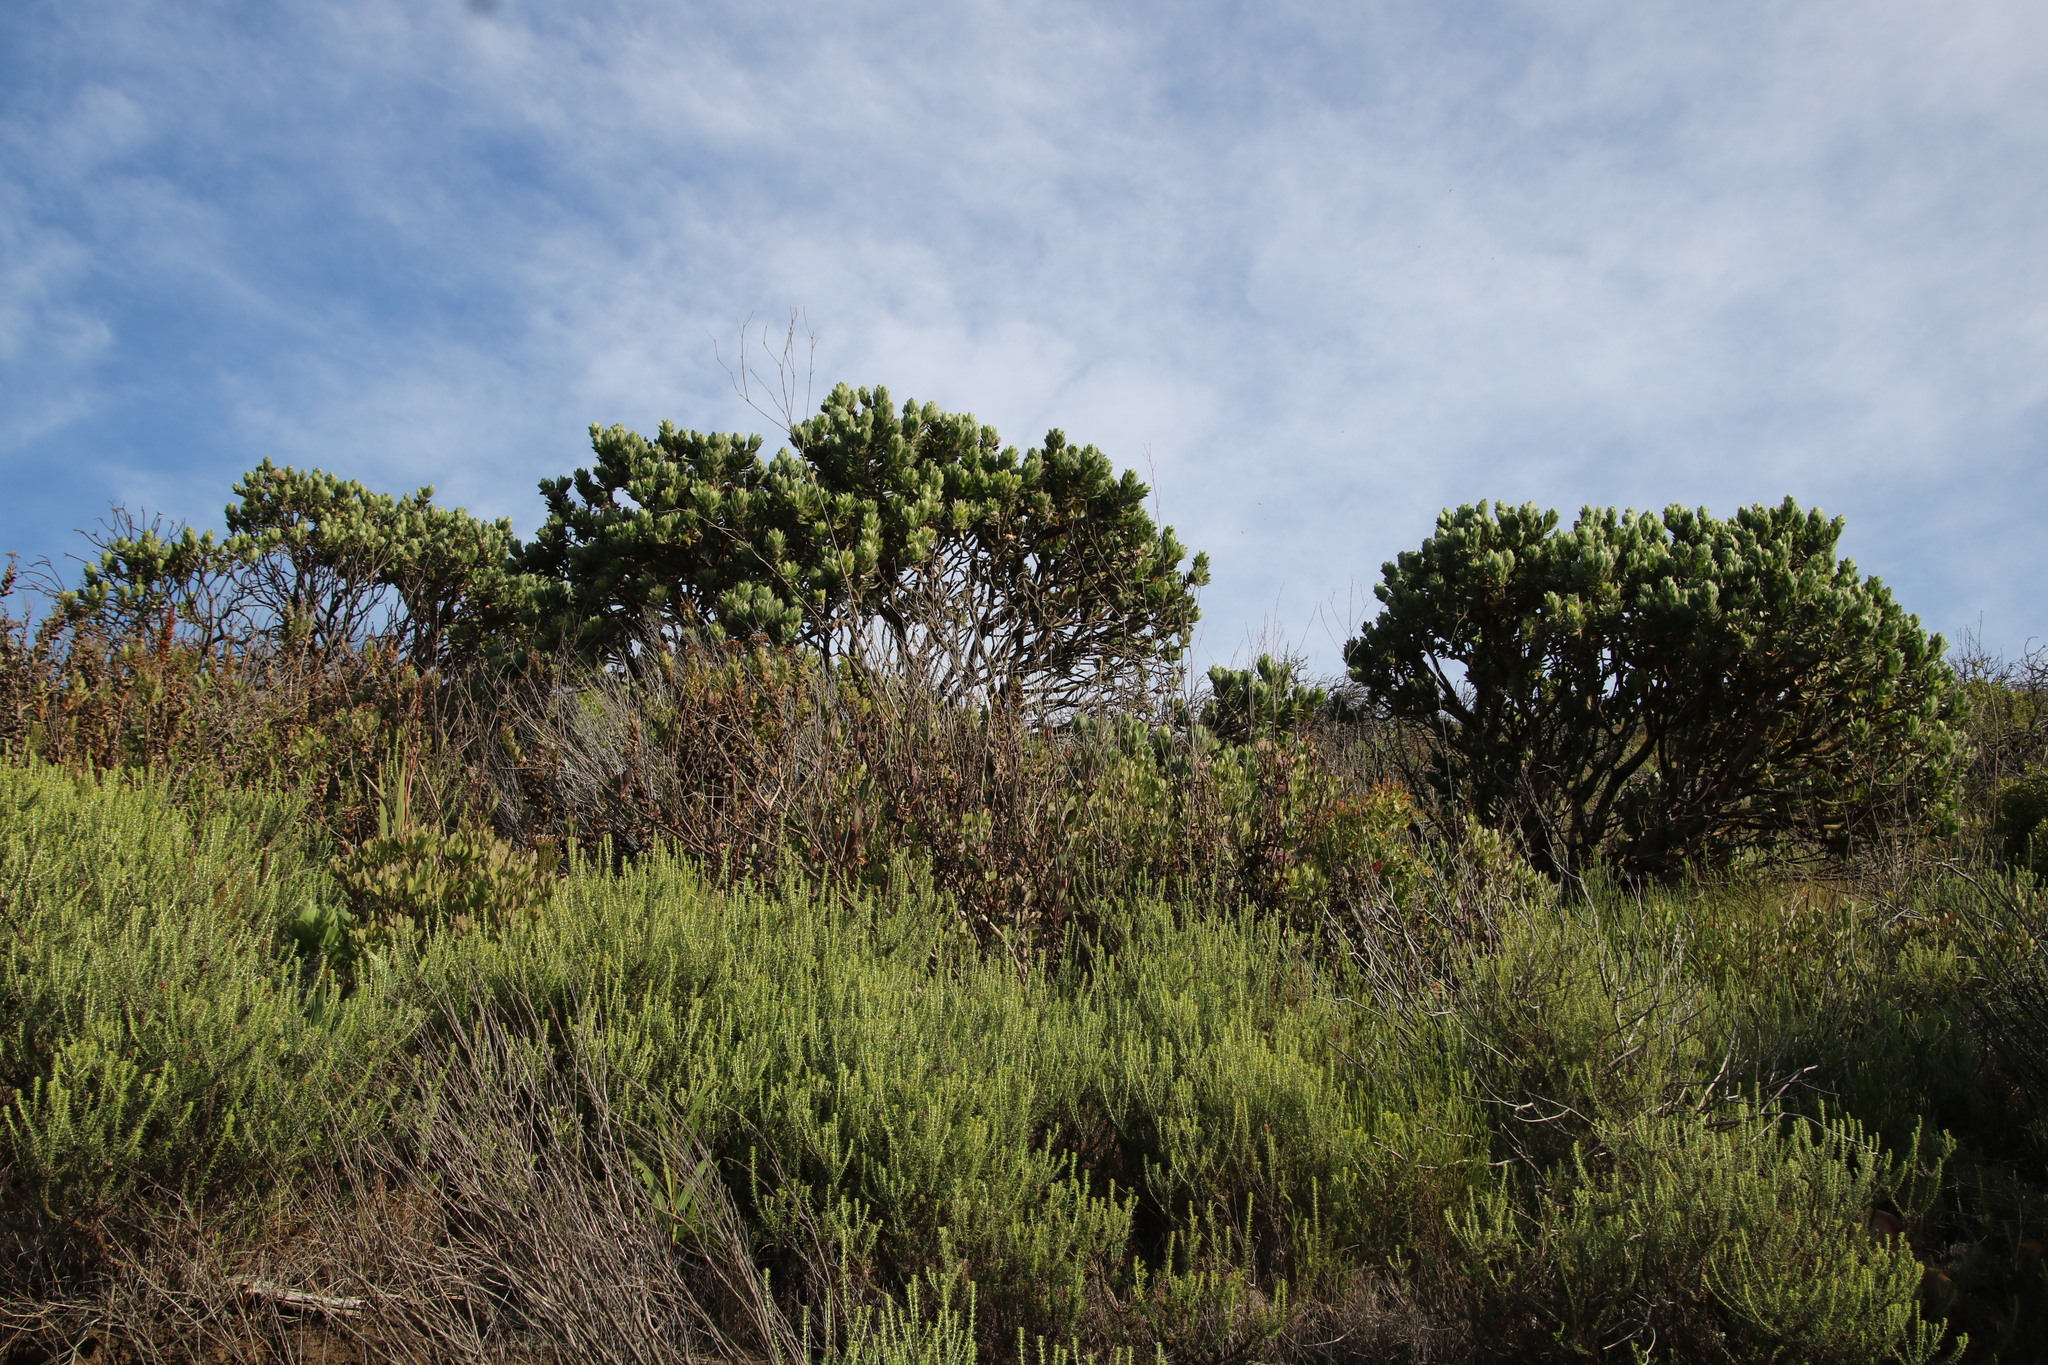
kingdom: Plantae
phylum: Tracheophyta
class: Magnoliopsida
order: Proteales
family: Proteaceae
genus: Leucospermum
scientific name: Leucospermum conocarpodendron
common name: Tree pincushion
